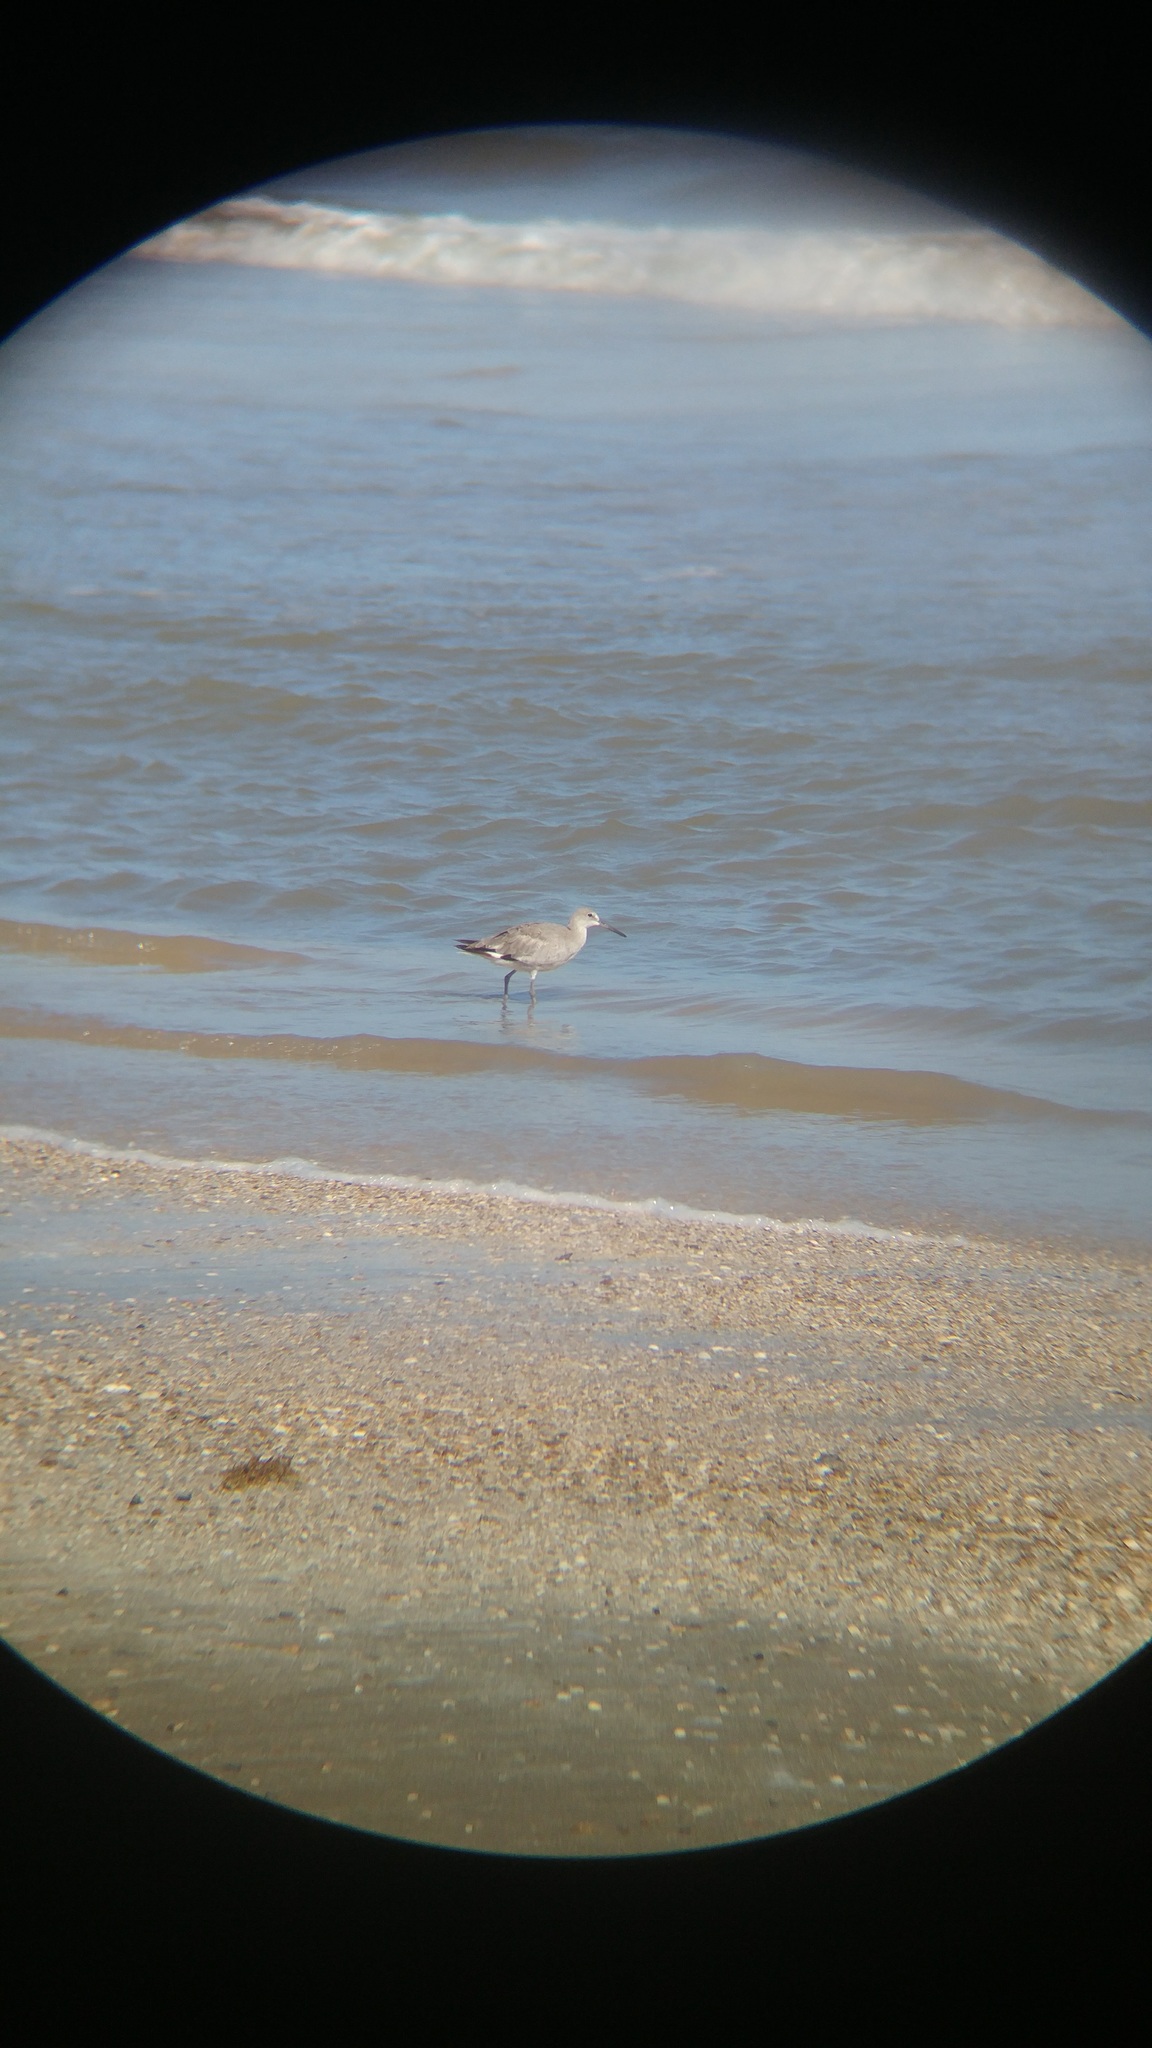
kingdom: Animalia
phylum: Chordata
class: Aves
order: Charadriiformes
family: Scolopacidae
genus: Tringa
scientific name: Tringa semipalmata
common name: Willet
